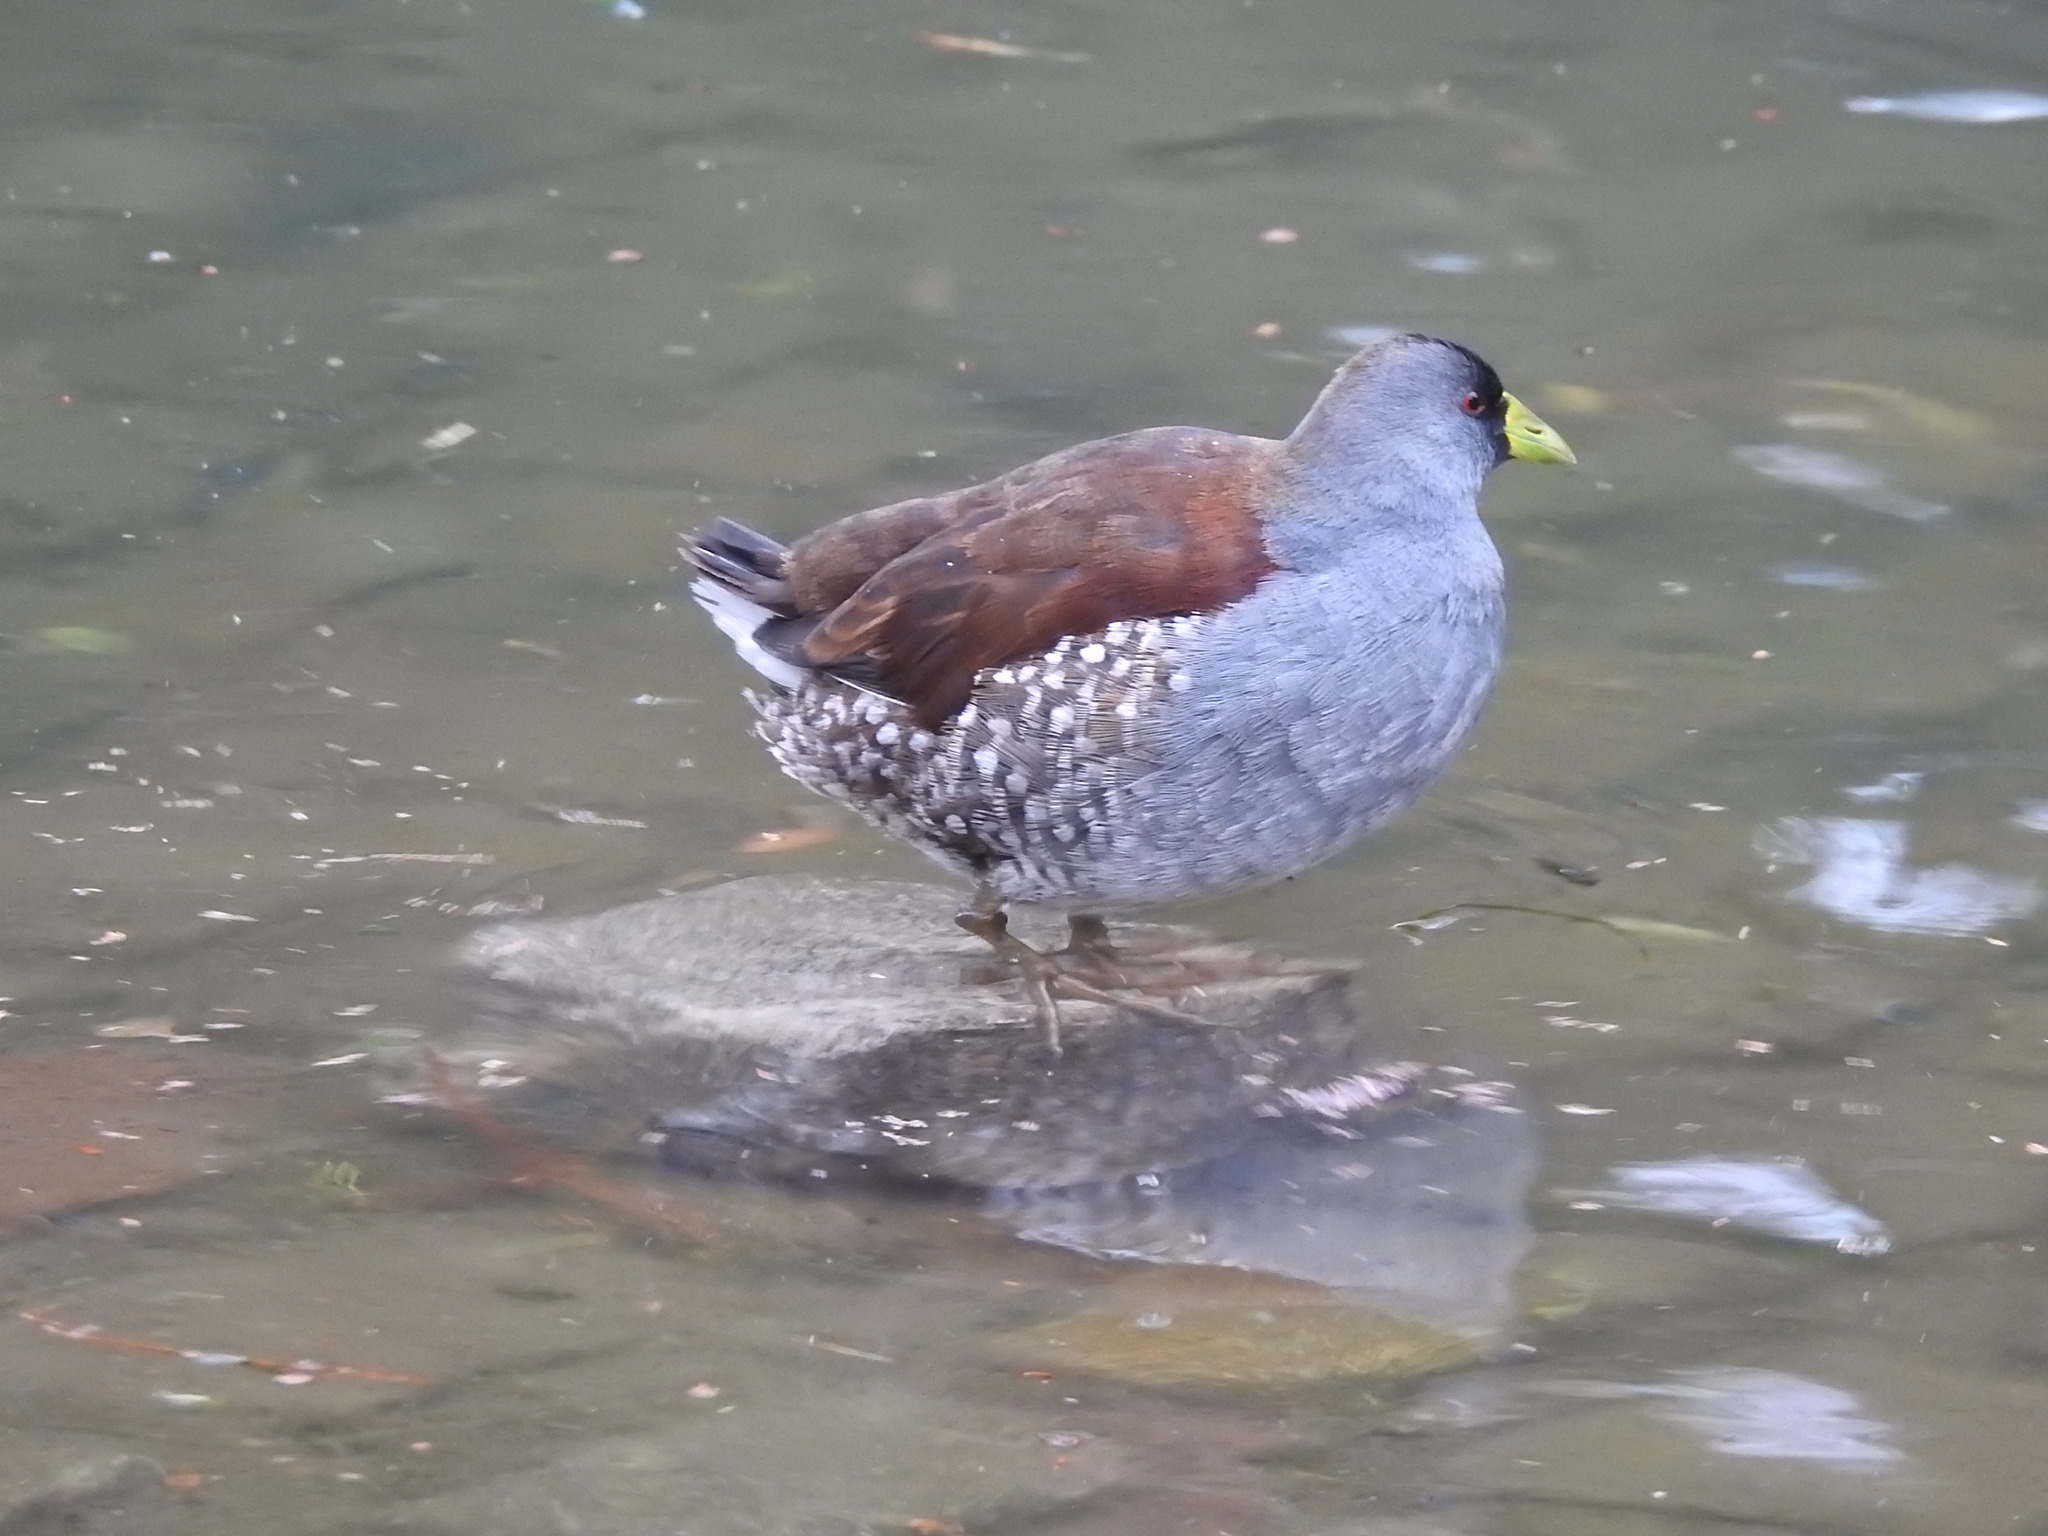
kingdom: Animalia
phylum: Chordata
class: Aves
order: Gruiformes
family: Rallidae
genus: Gallinula
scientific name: Gallinula melanops
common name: Spot-flanked gallinule
